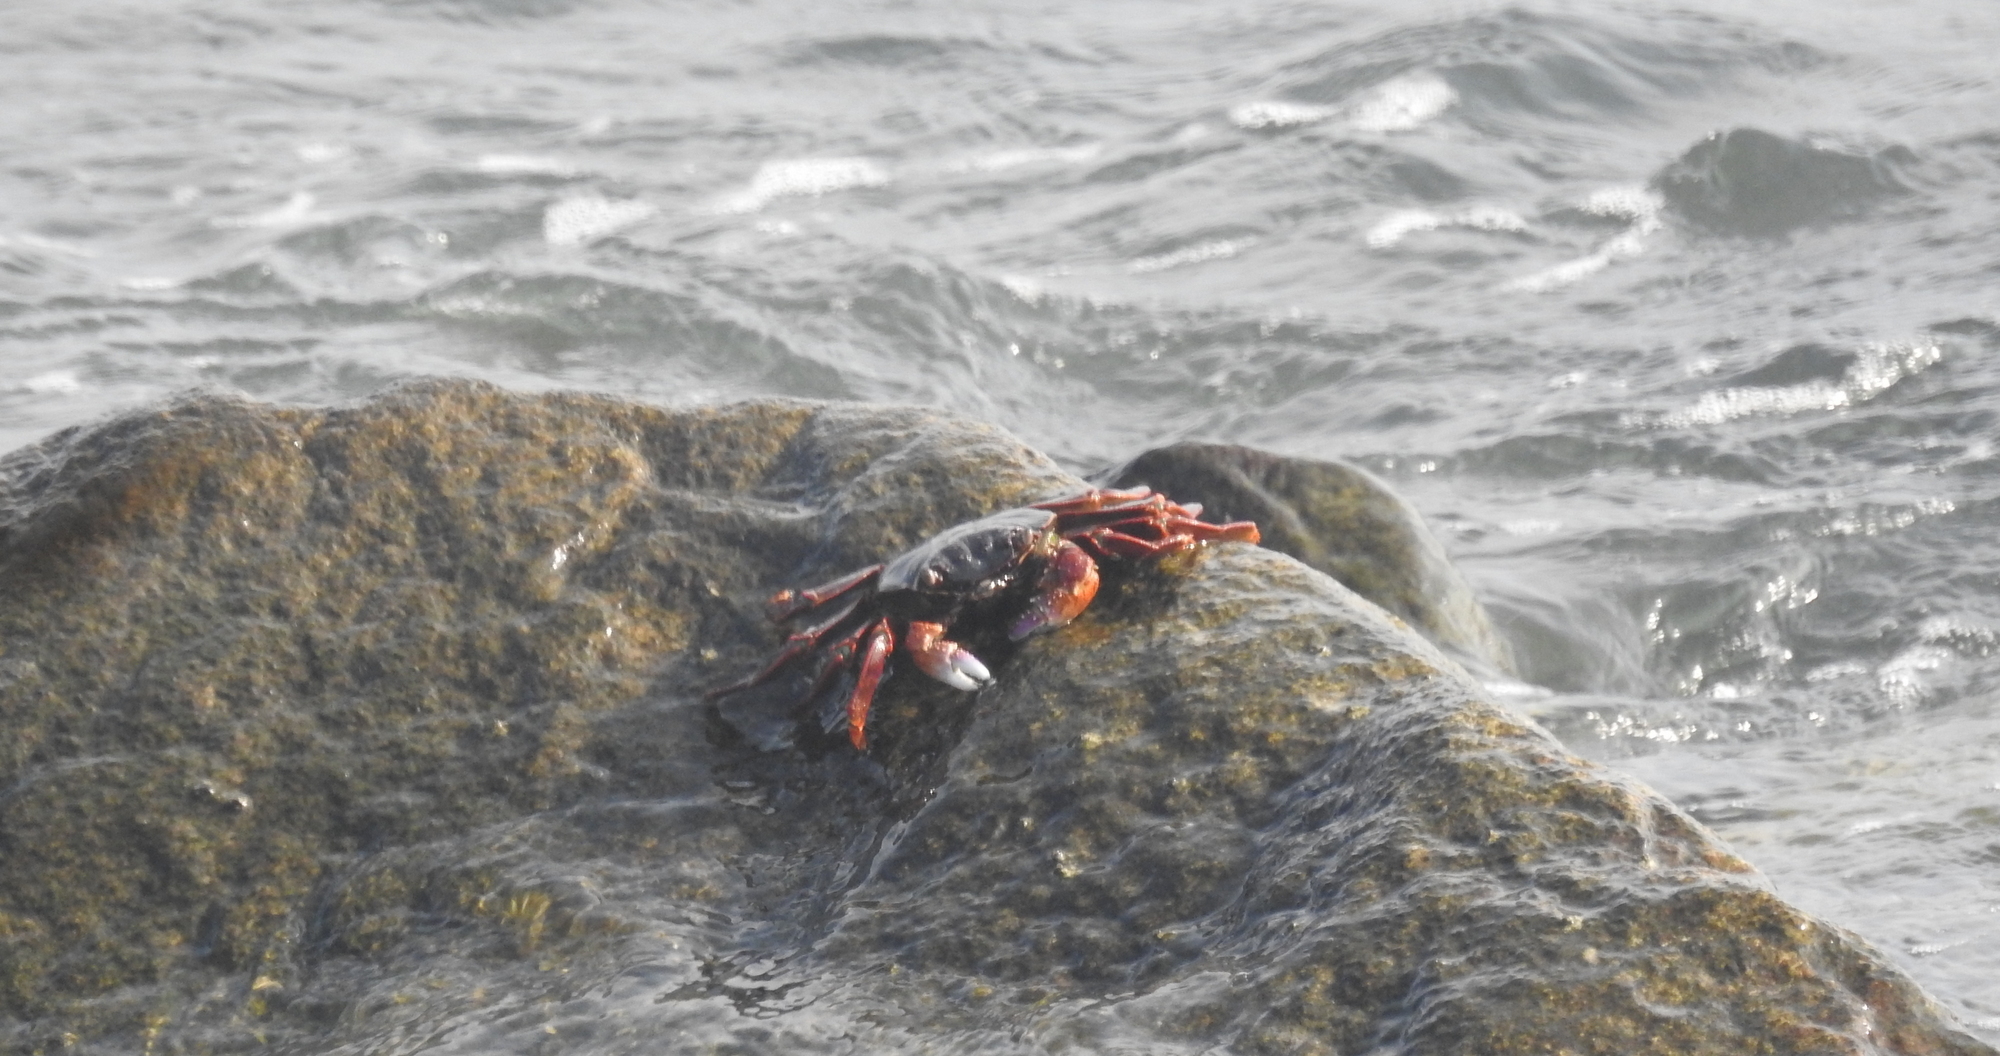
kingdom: Animalia
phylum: Arthropoda
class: Malacostraca
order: Decapoda
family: Grapsidae
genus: Grapsus
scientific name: Grapsus albolineatus
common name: Mottled lightfoot crab
